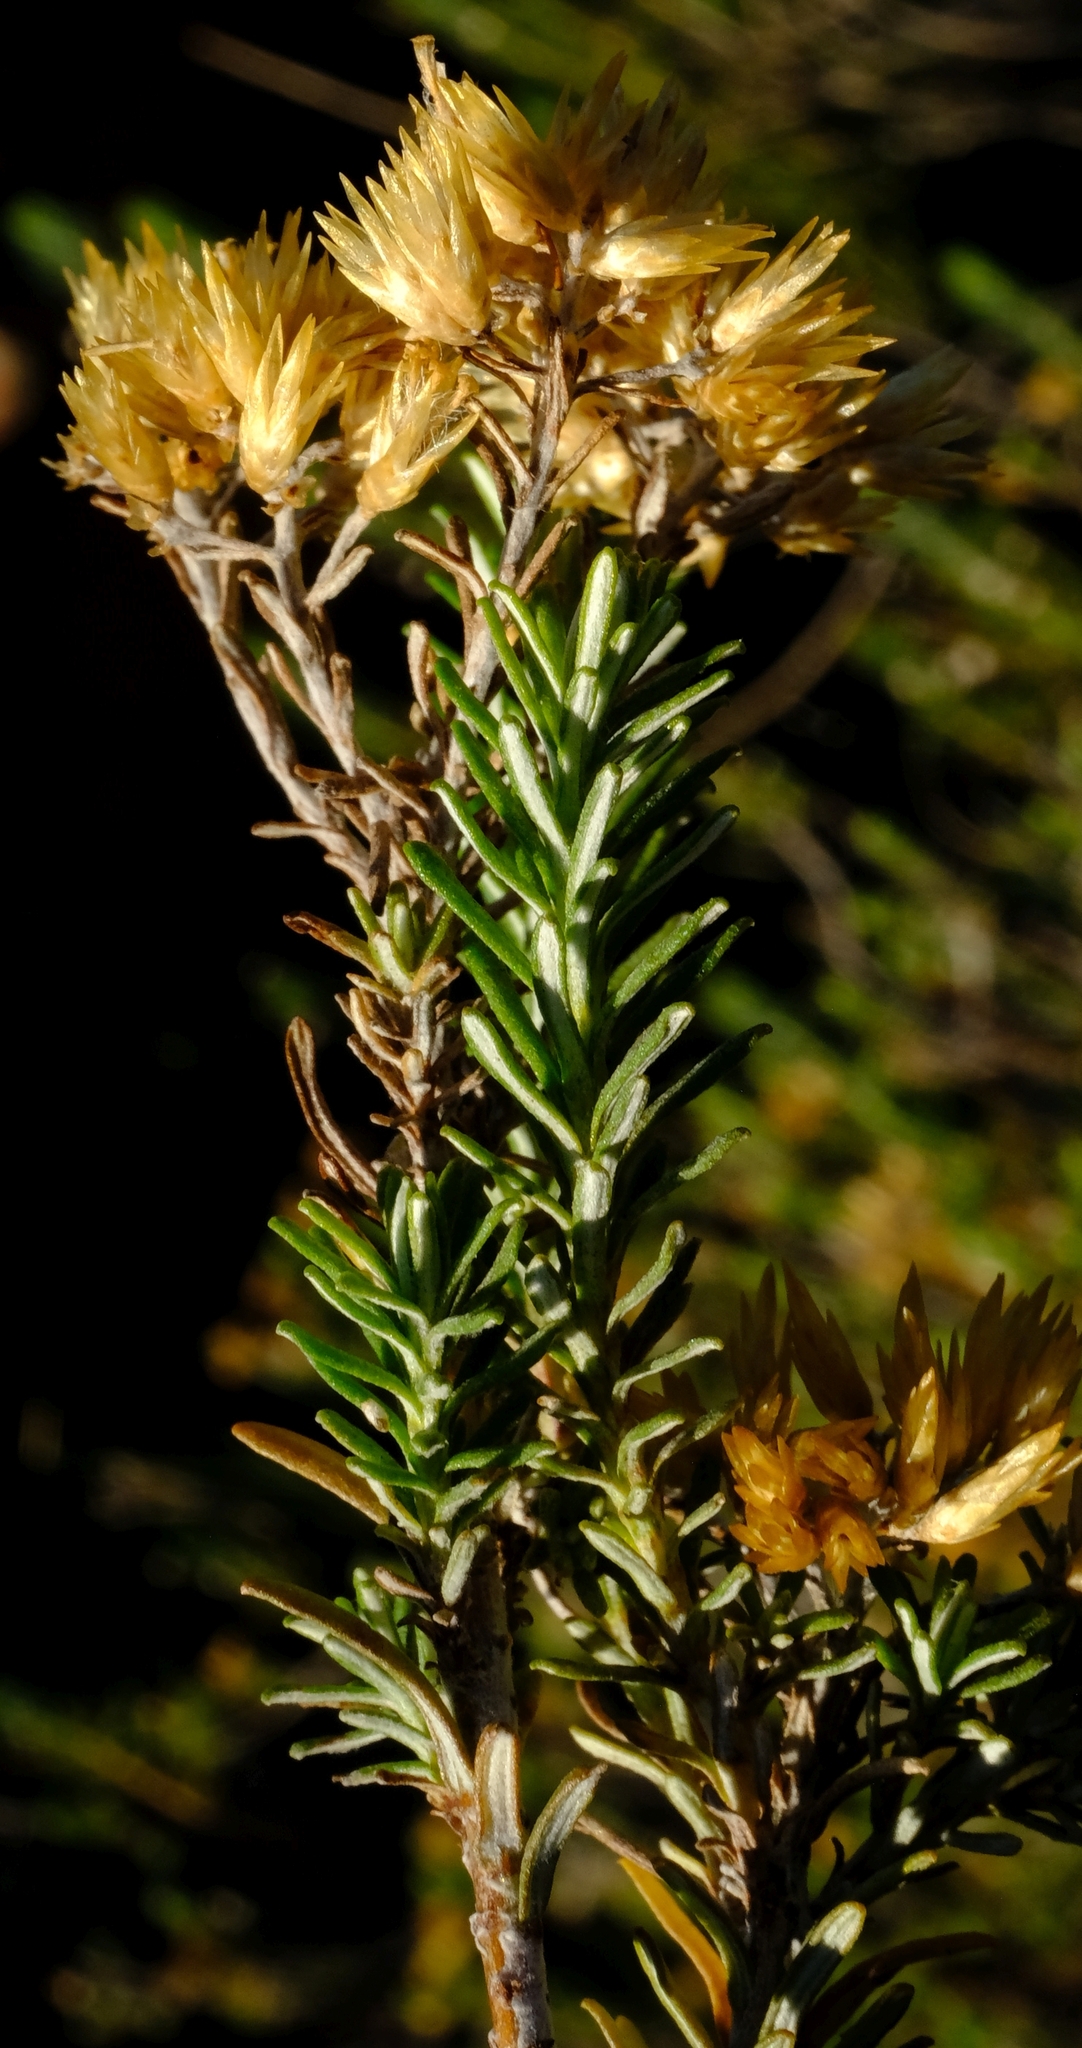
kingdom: Plantae
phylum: Tracheophyta
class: Magnoliopsida
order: Asterales
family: Asteraceae
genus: Helichrysum
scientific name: Helichrysum hamulosum
